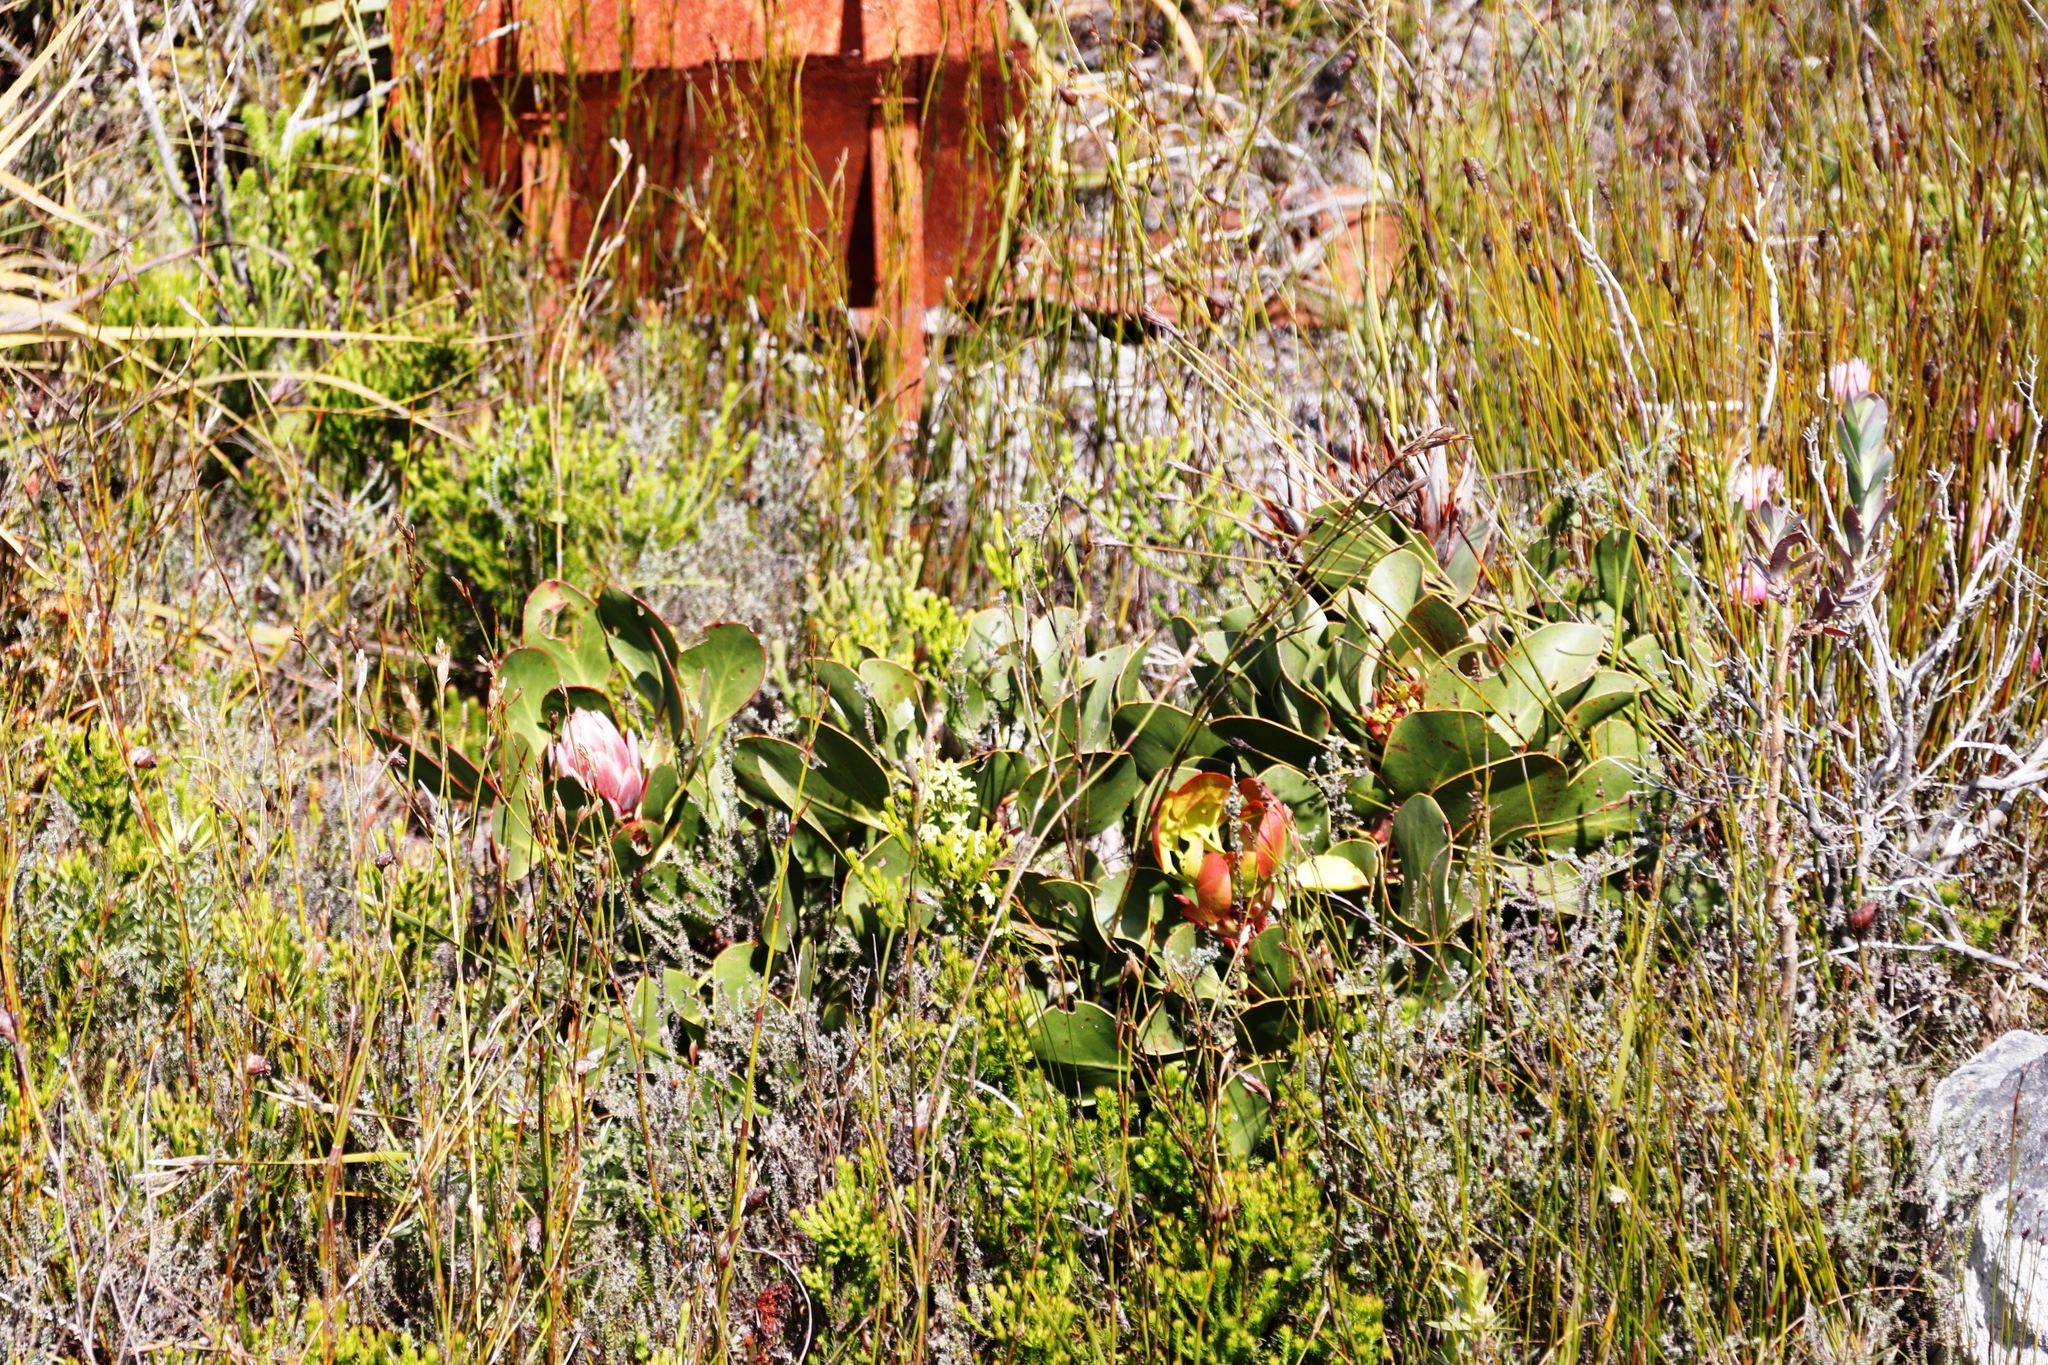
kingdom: Plantae
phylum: Tracheophyta
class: Magnoliopsida
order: Proteales
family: Proteaceae
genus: Protea
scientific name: Protea cynaroides
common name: King protea
